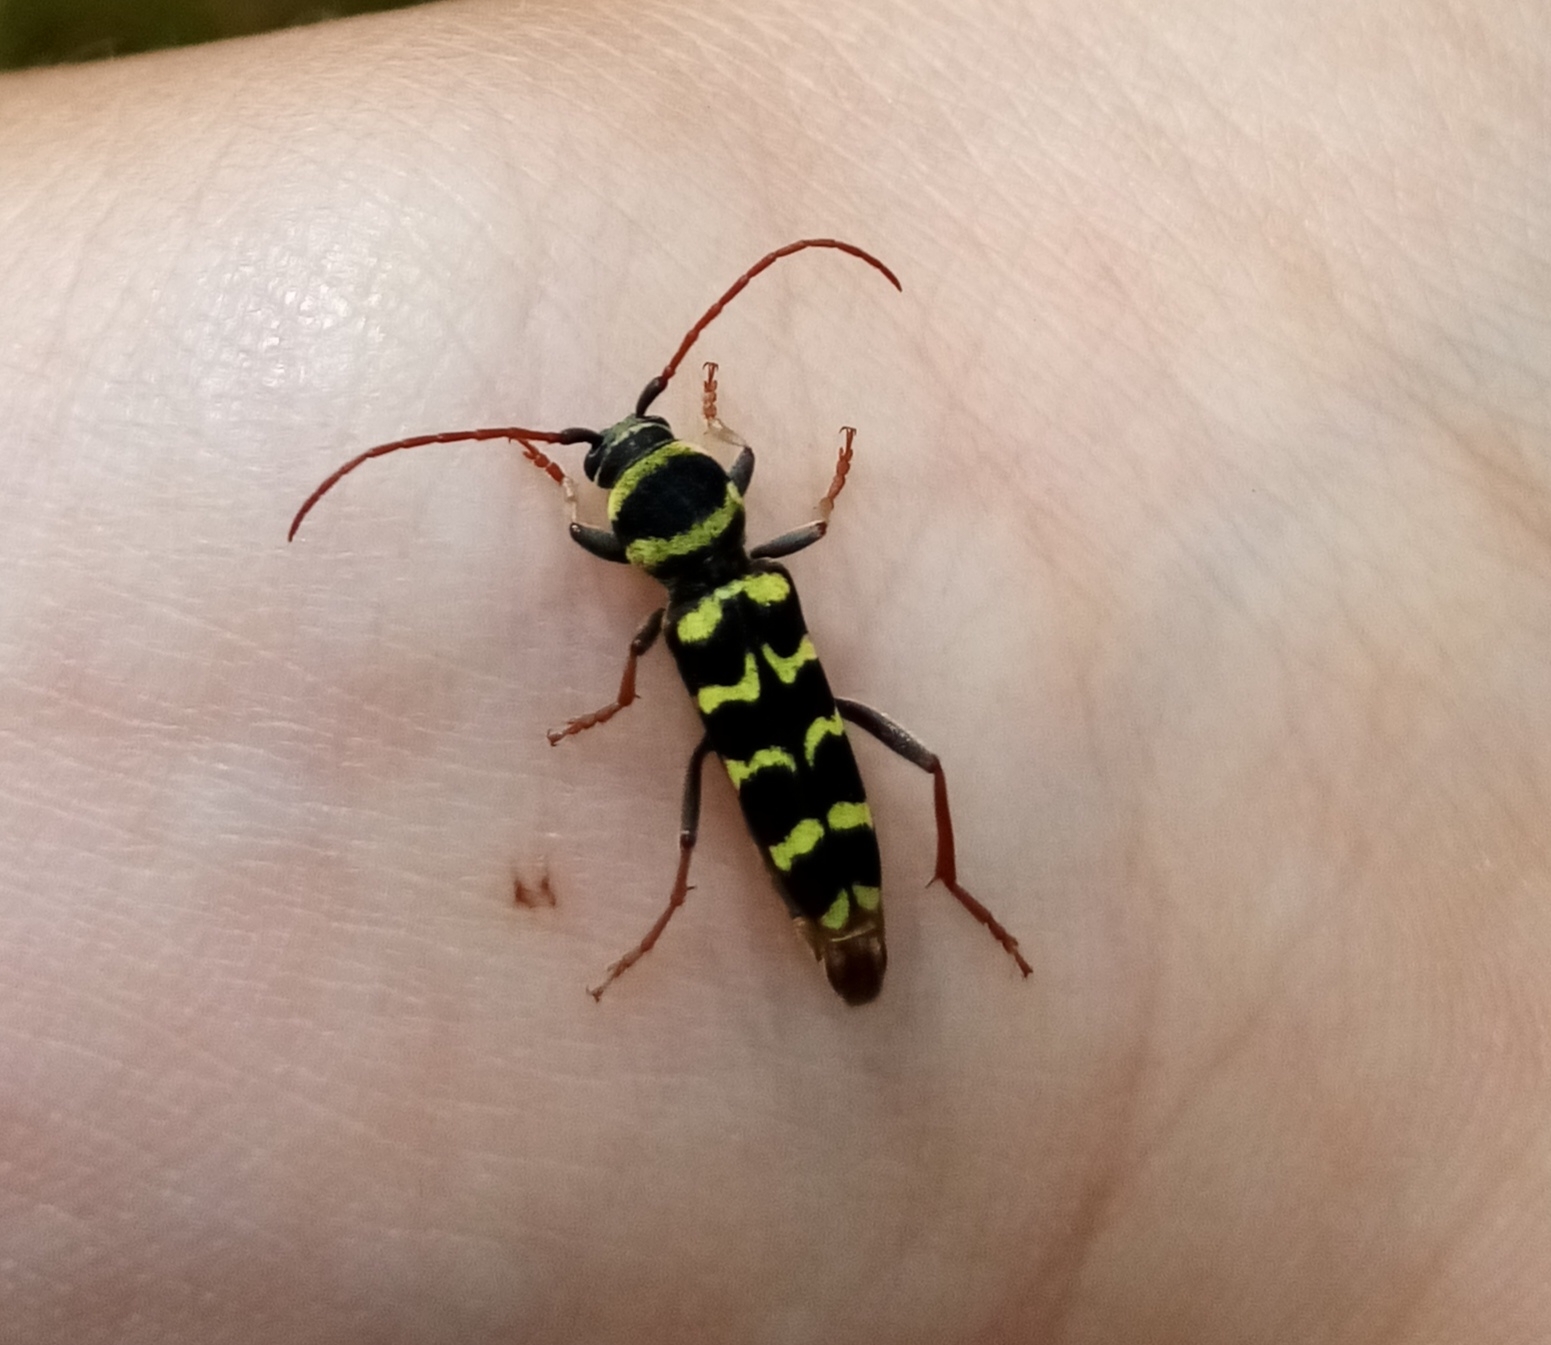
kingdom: Animalia
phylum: Arthropoda
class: Insecta
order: Coleoptera
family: Cerambycidae
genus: Plagionotus
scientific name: Plagionotus floralis
